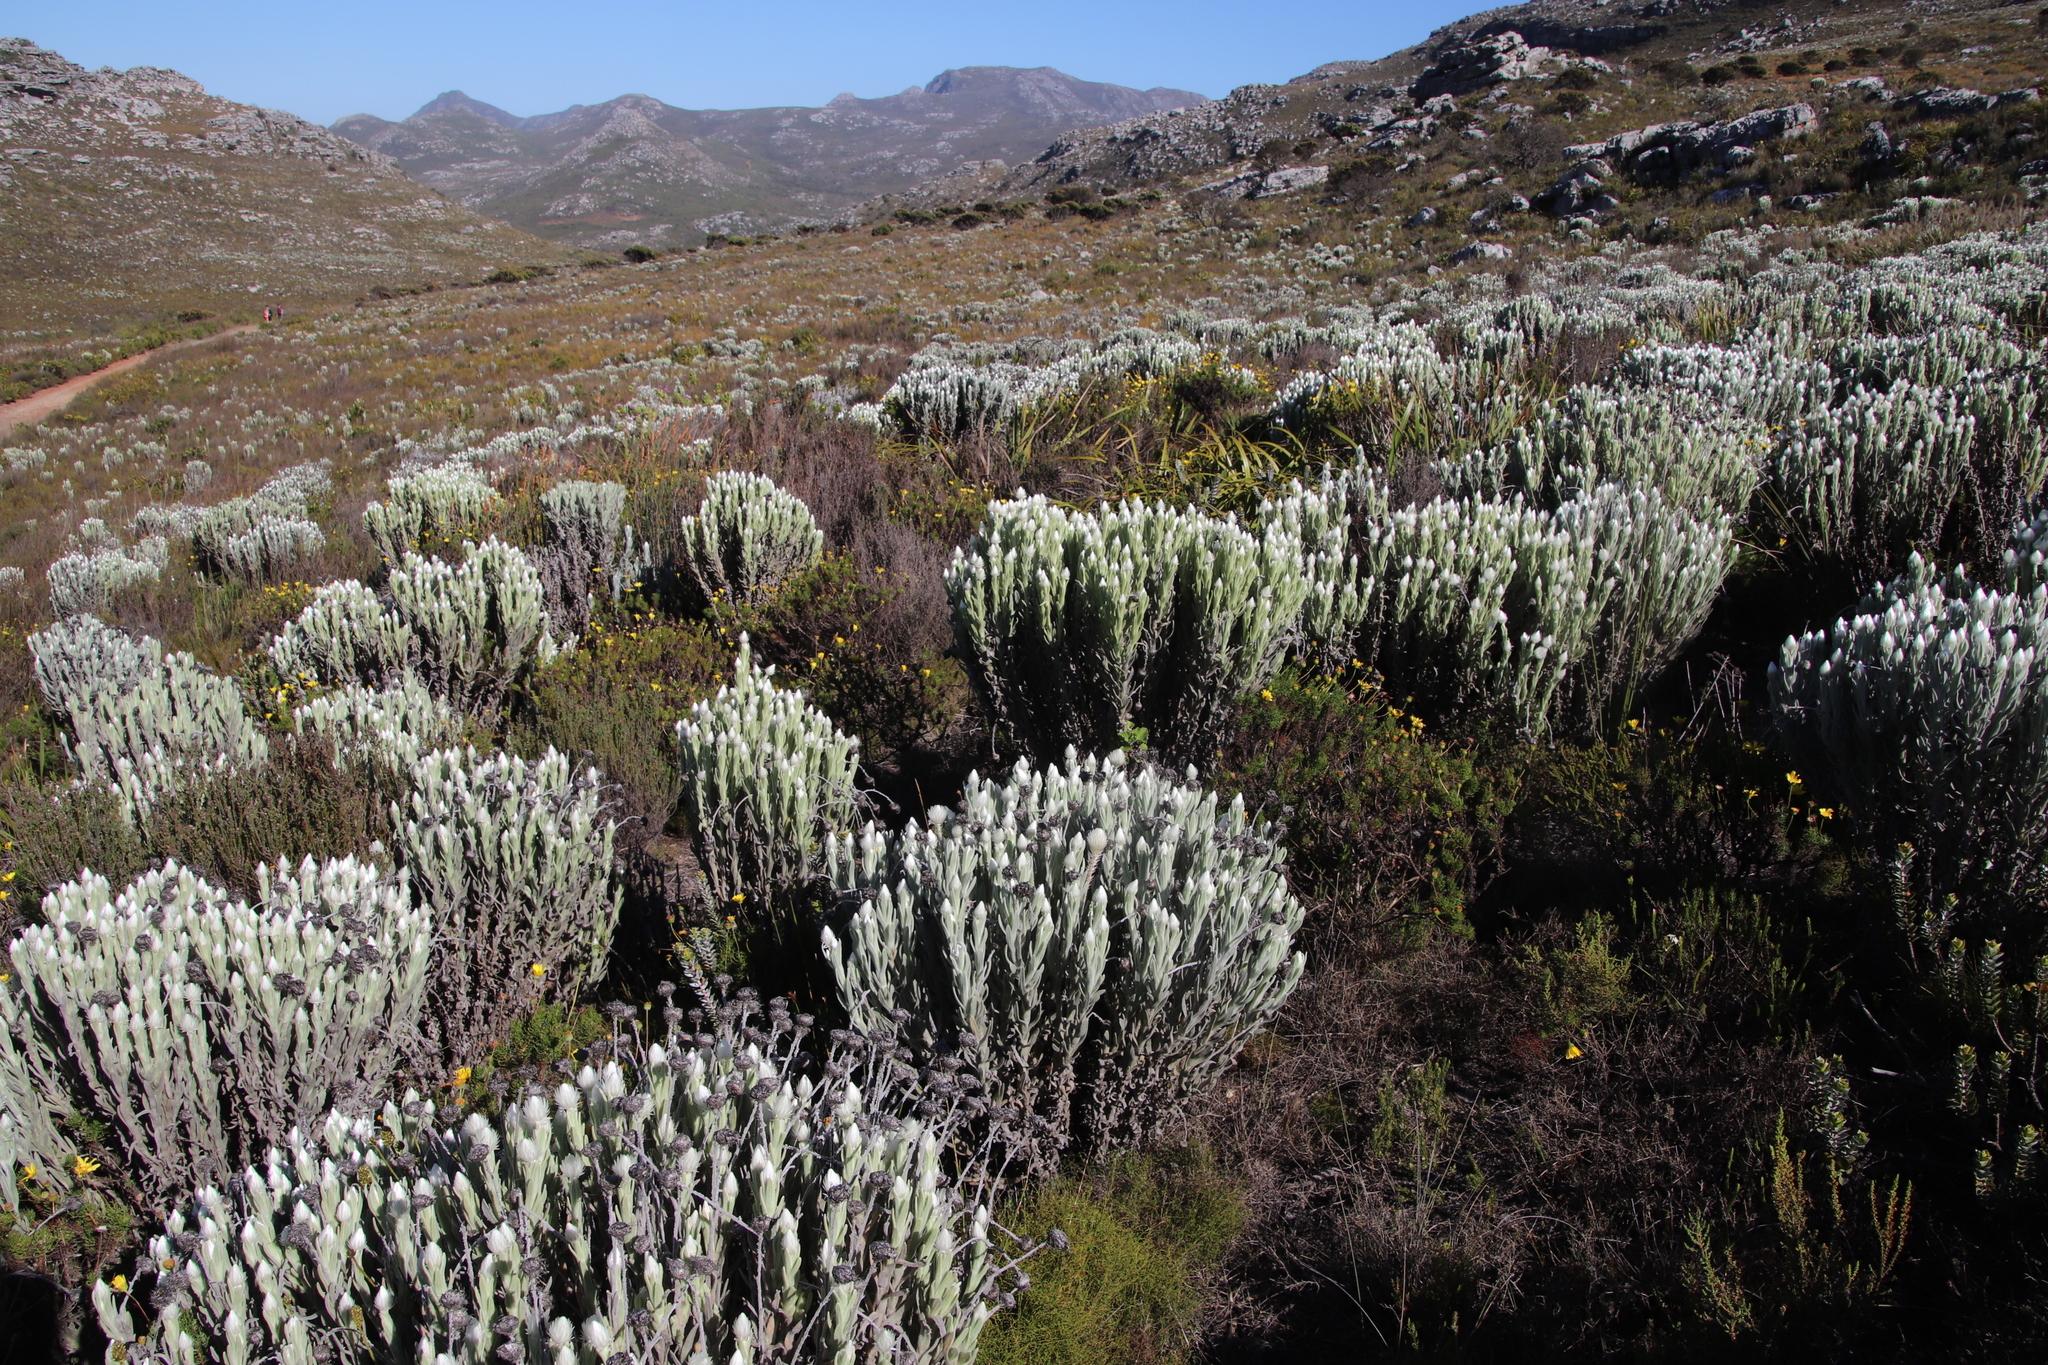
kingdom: Plantae
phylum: Tracheophyta
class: Magnoliopsida
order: Asterales
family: Asteraceae
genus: Syncarpha
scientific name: Syncarpha vestita
